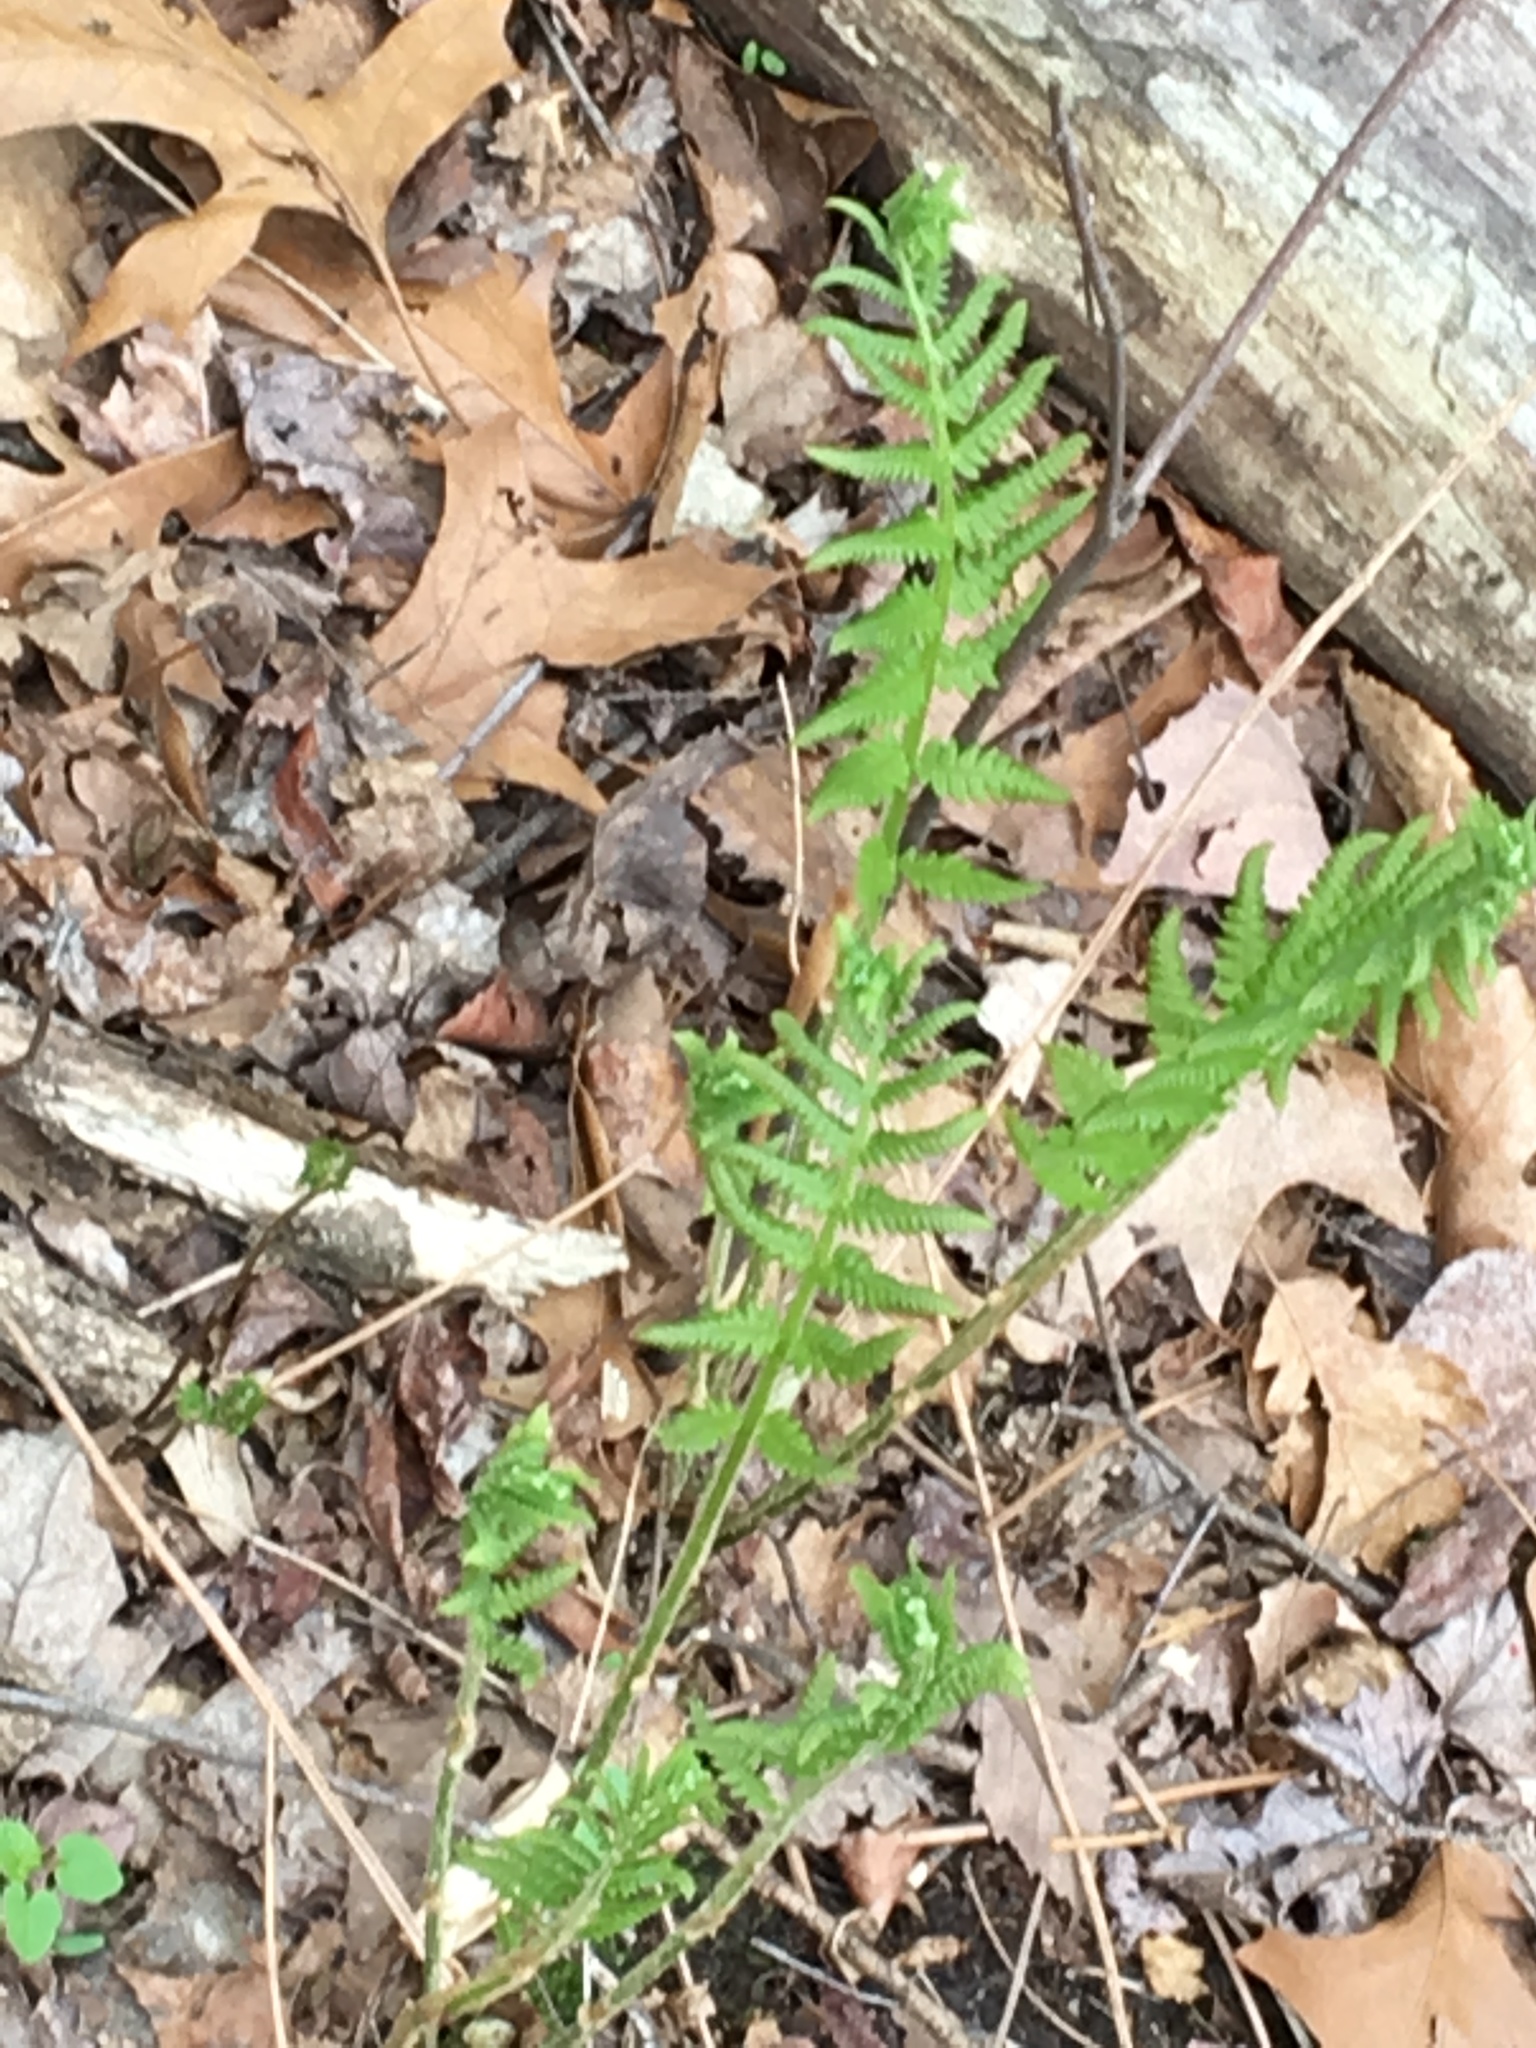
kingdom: Plantae
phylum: Tracheophyta
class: Polypodiopsida
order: Osmundales
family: Osmundaceae
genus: Osmundastrum
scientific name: Osmundastrum cinnamomeum
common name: Cinnamon fern
